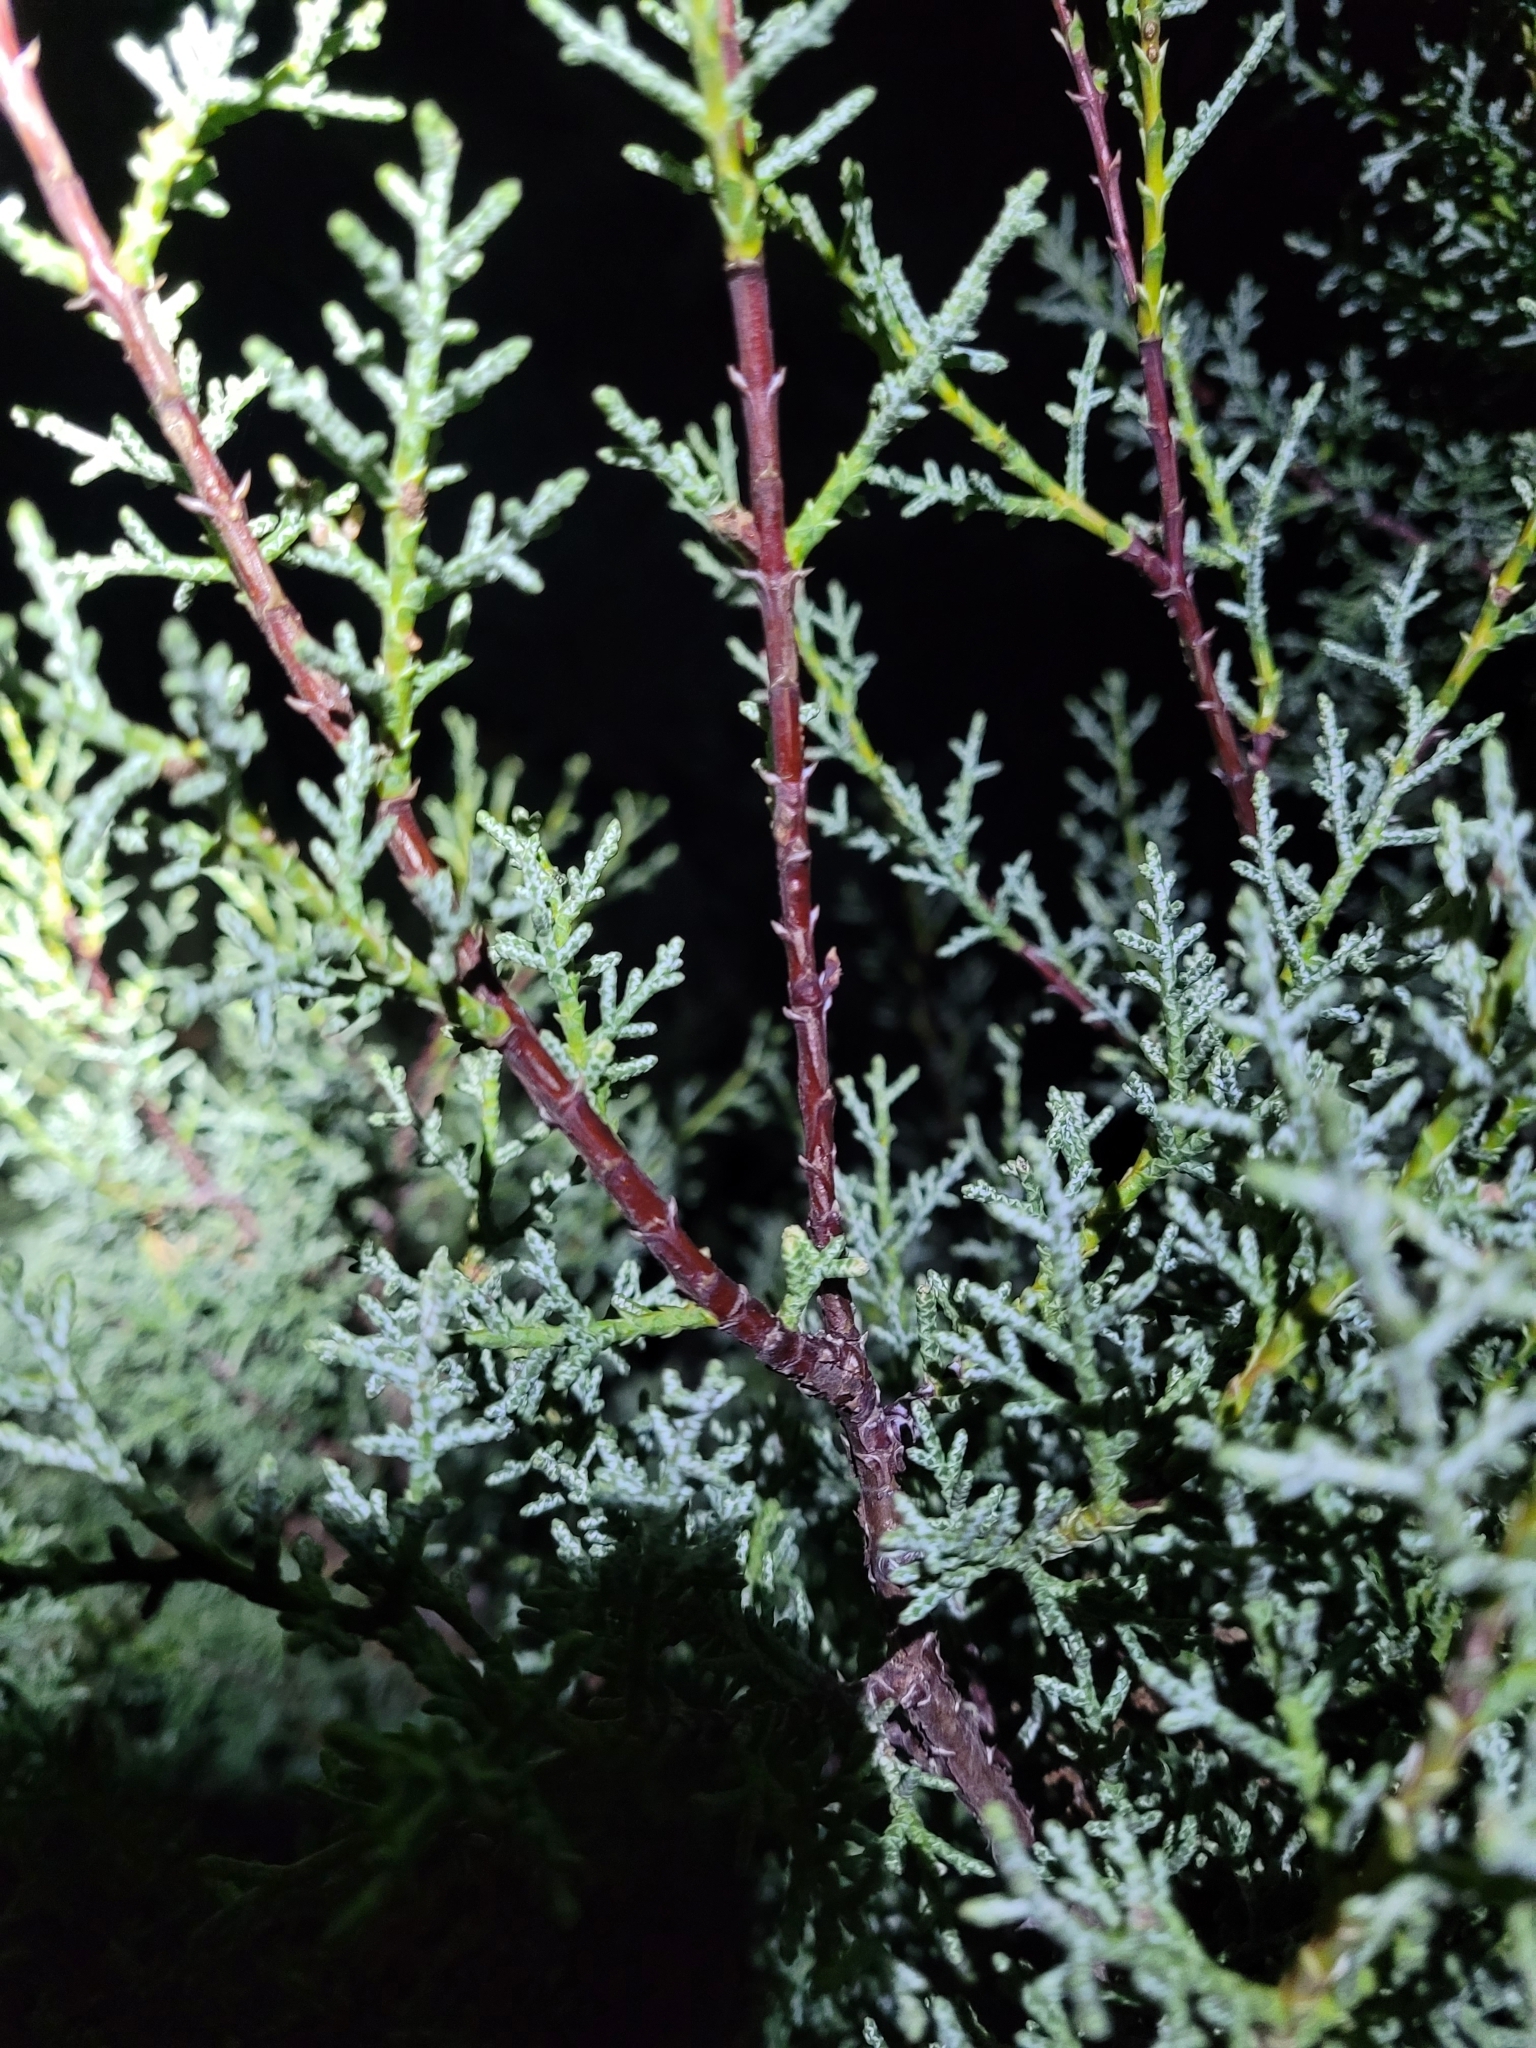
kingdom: Plantae
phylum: Tracheophyta
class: Pinopsida
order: Pinales
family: Cupressaceae
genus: Cupressus
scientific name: Cupressus sargentii
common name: Sargent cypress
